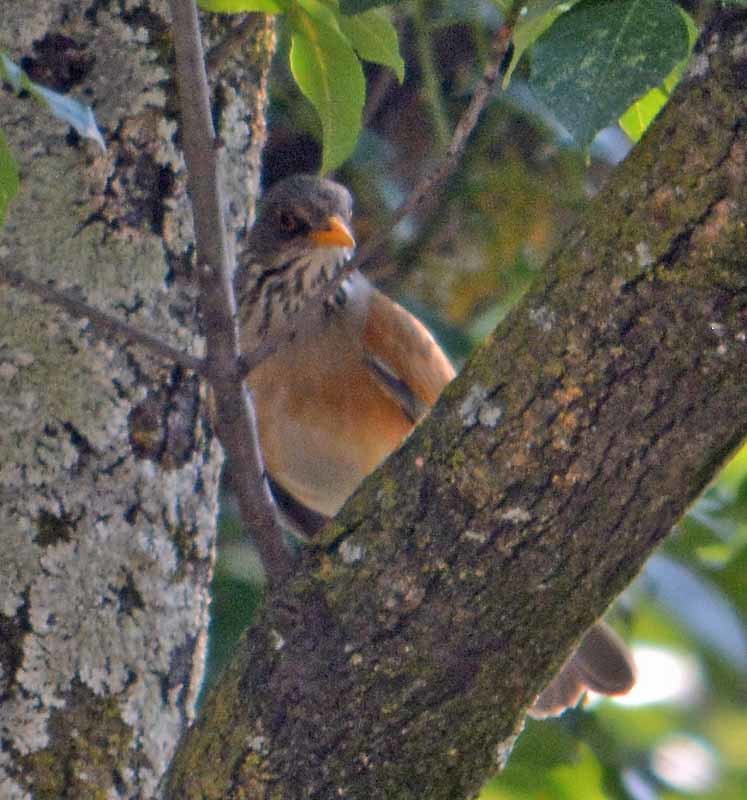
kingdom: Animalia
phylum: Chordata
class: Aves
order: Passeriformes
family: Turdidae
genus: Turdus
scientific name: Turdus rufopalliatus
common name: Rufous-backed robin
